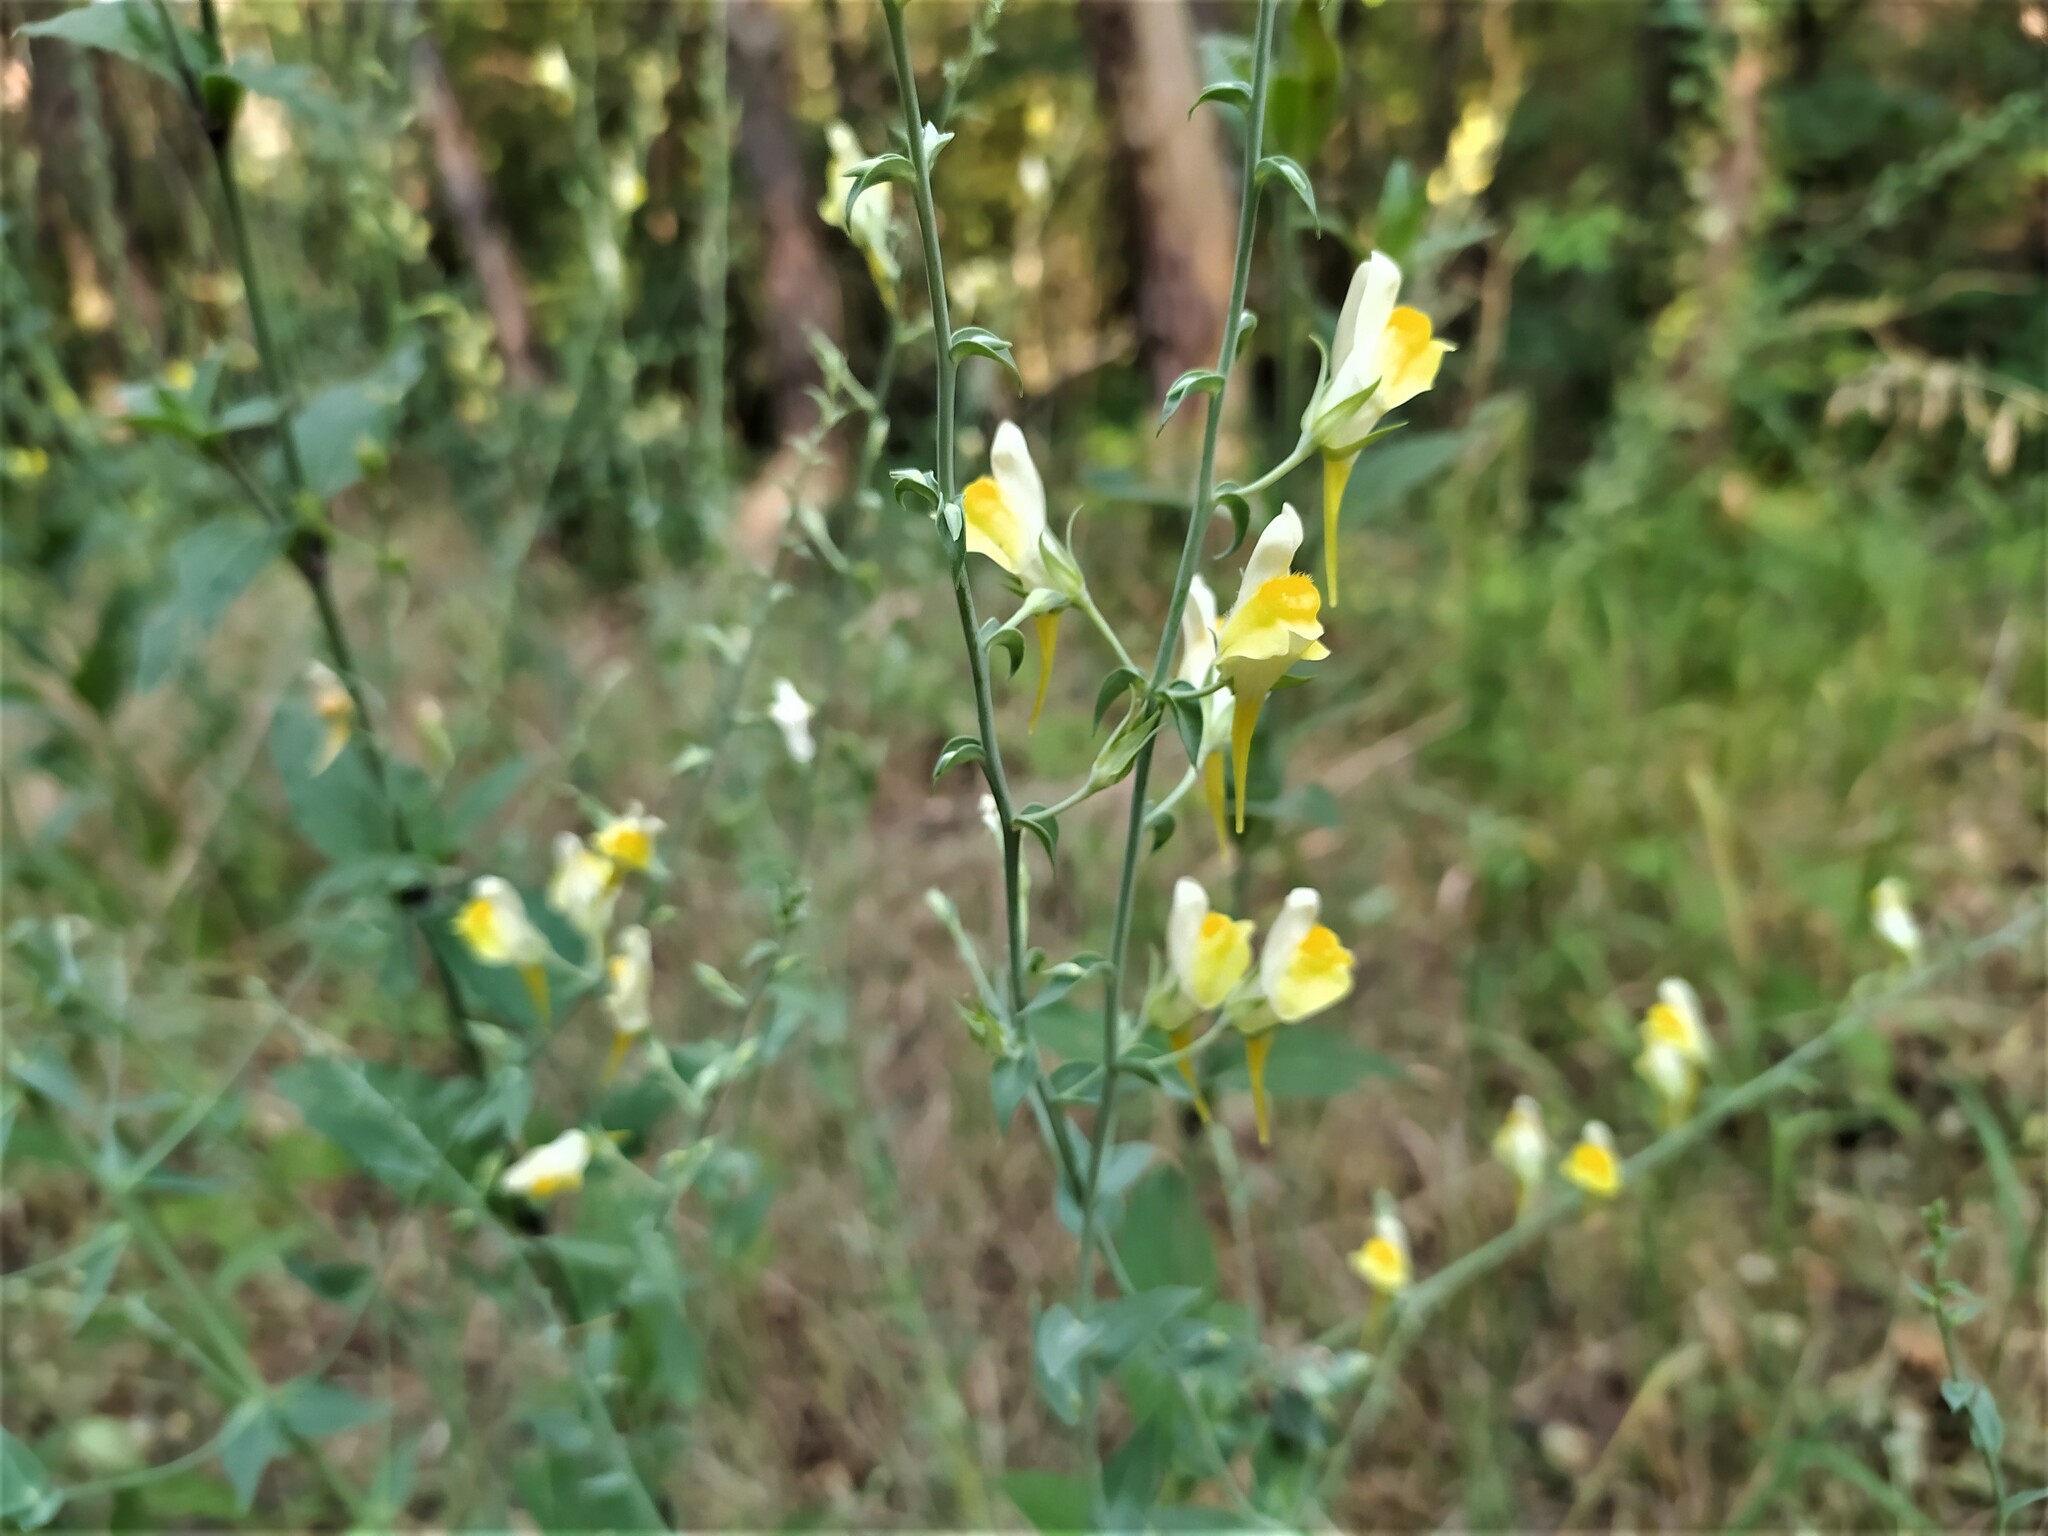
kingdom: Plantae
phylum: Tracheophyta
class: Magnoliopsida
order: Lamiales
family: Plantaginaceae
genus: Linaria
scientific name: Linaria dalmatica
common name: Dalmatian toadflax
